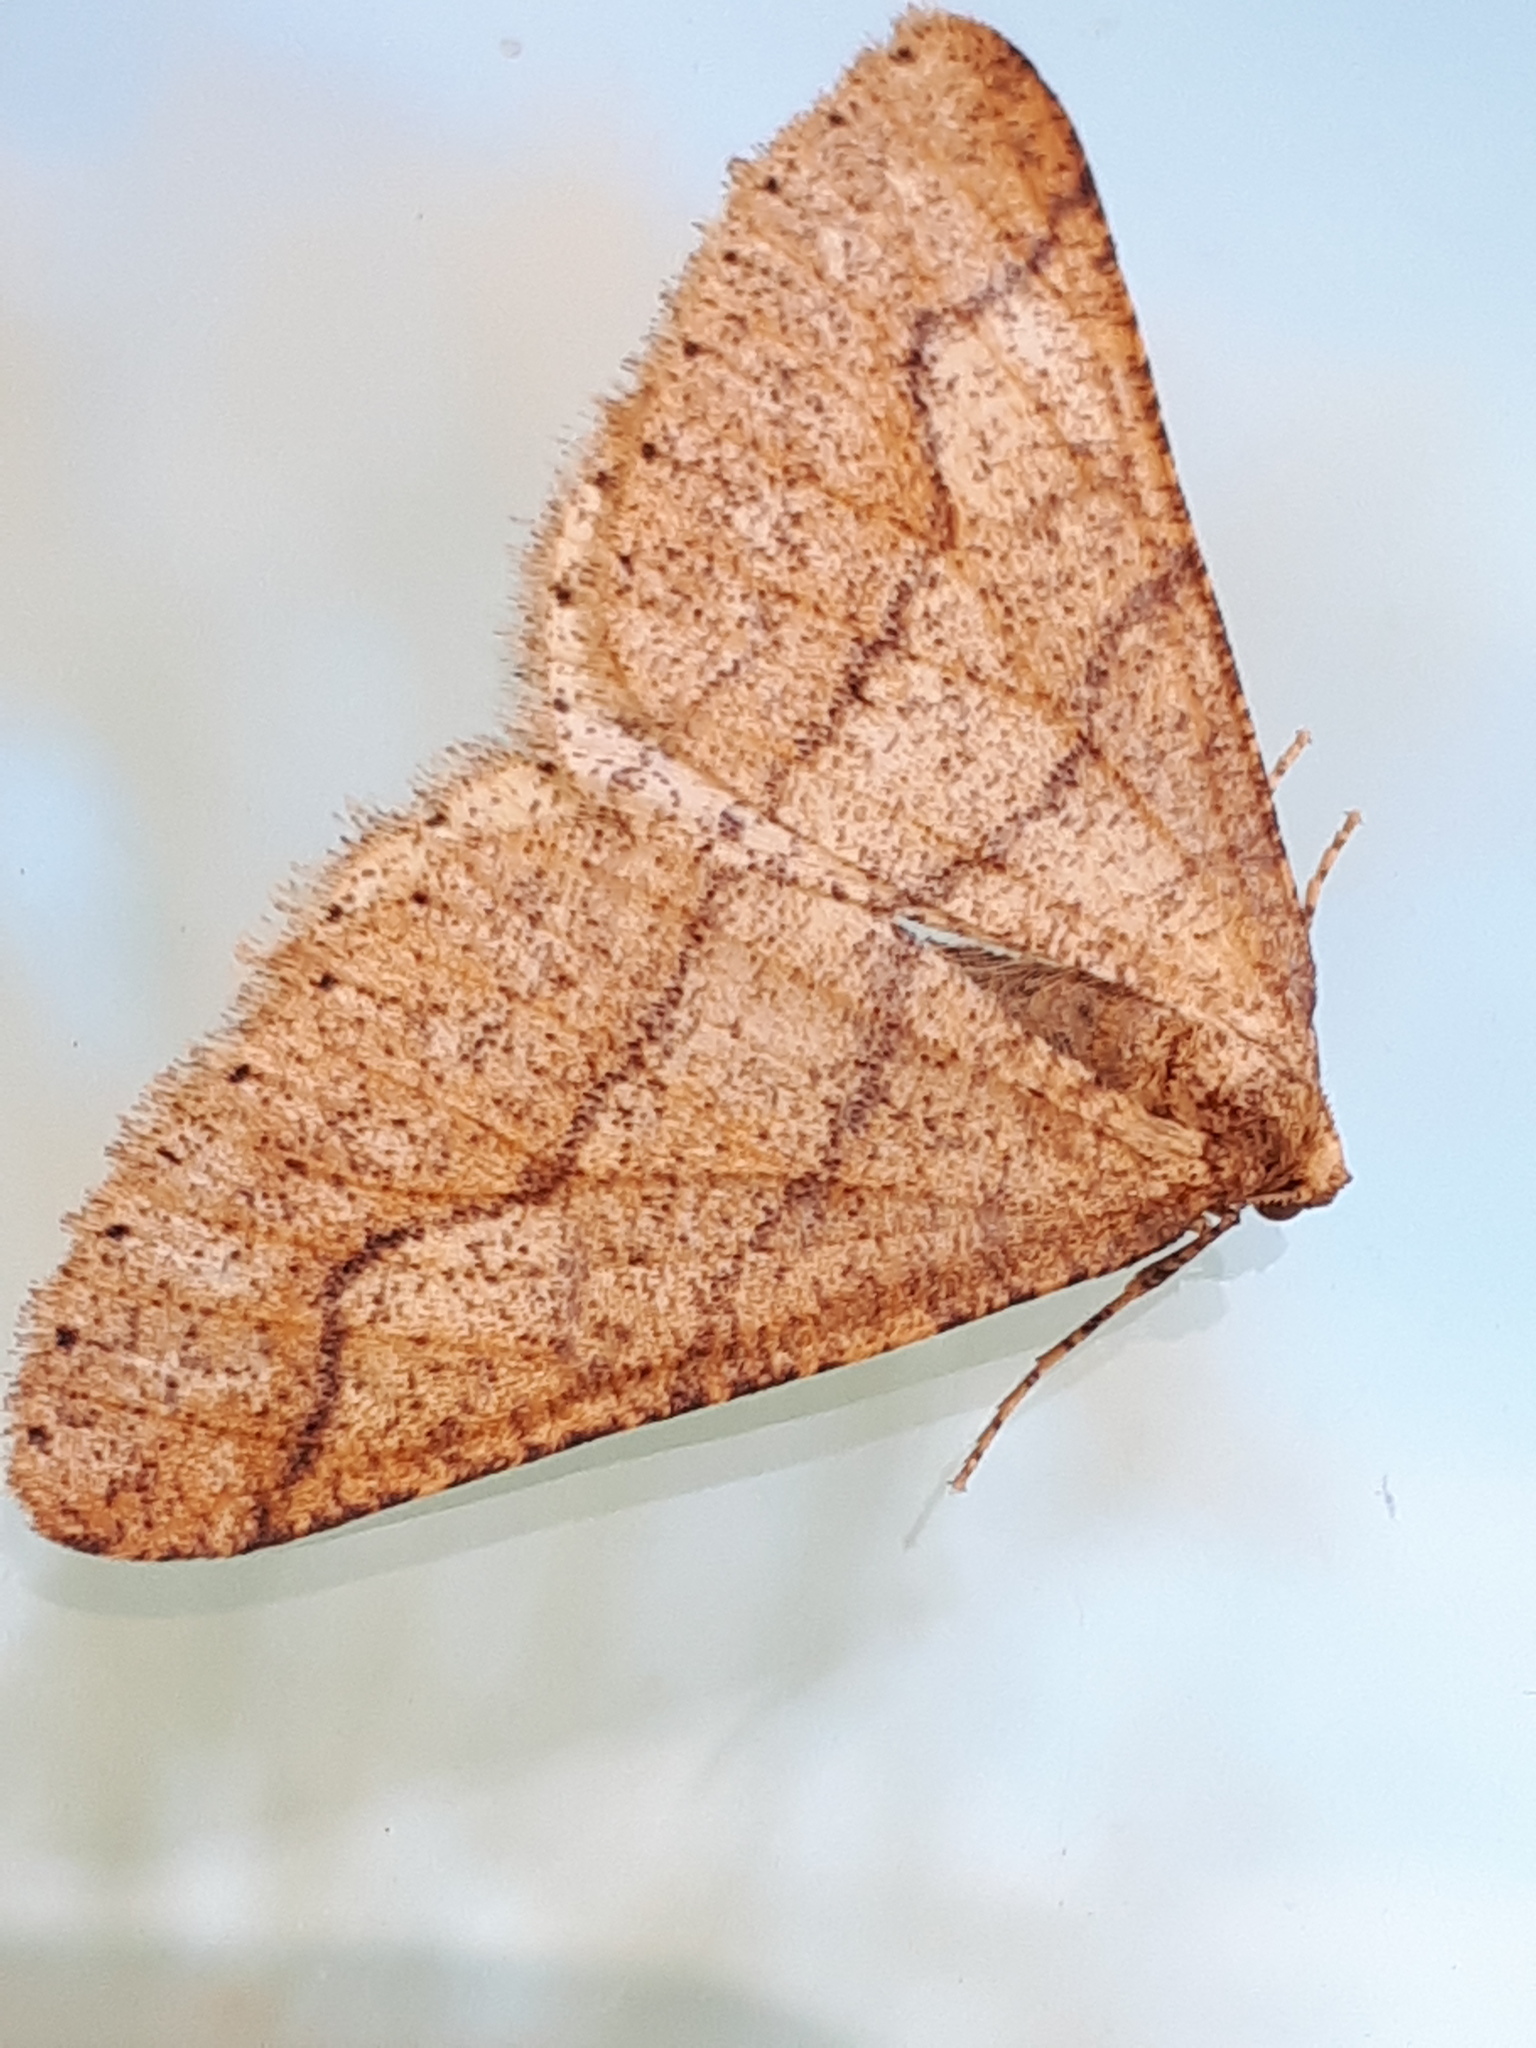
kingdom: Animalia
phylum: Arthropoda
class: Insecta
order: Lepidoptera
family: Geometridae
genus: Agriopis
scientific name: Agriopis marginaria
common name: Dotted border
